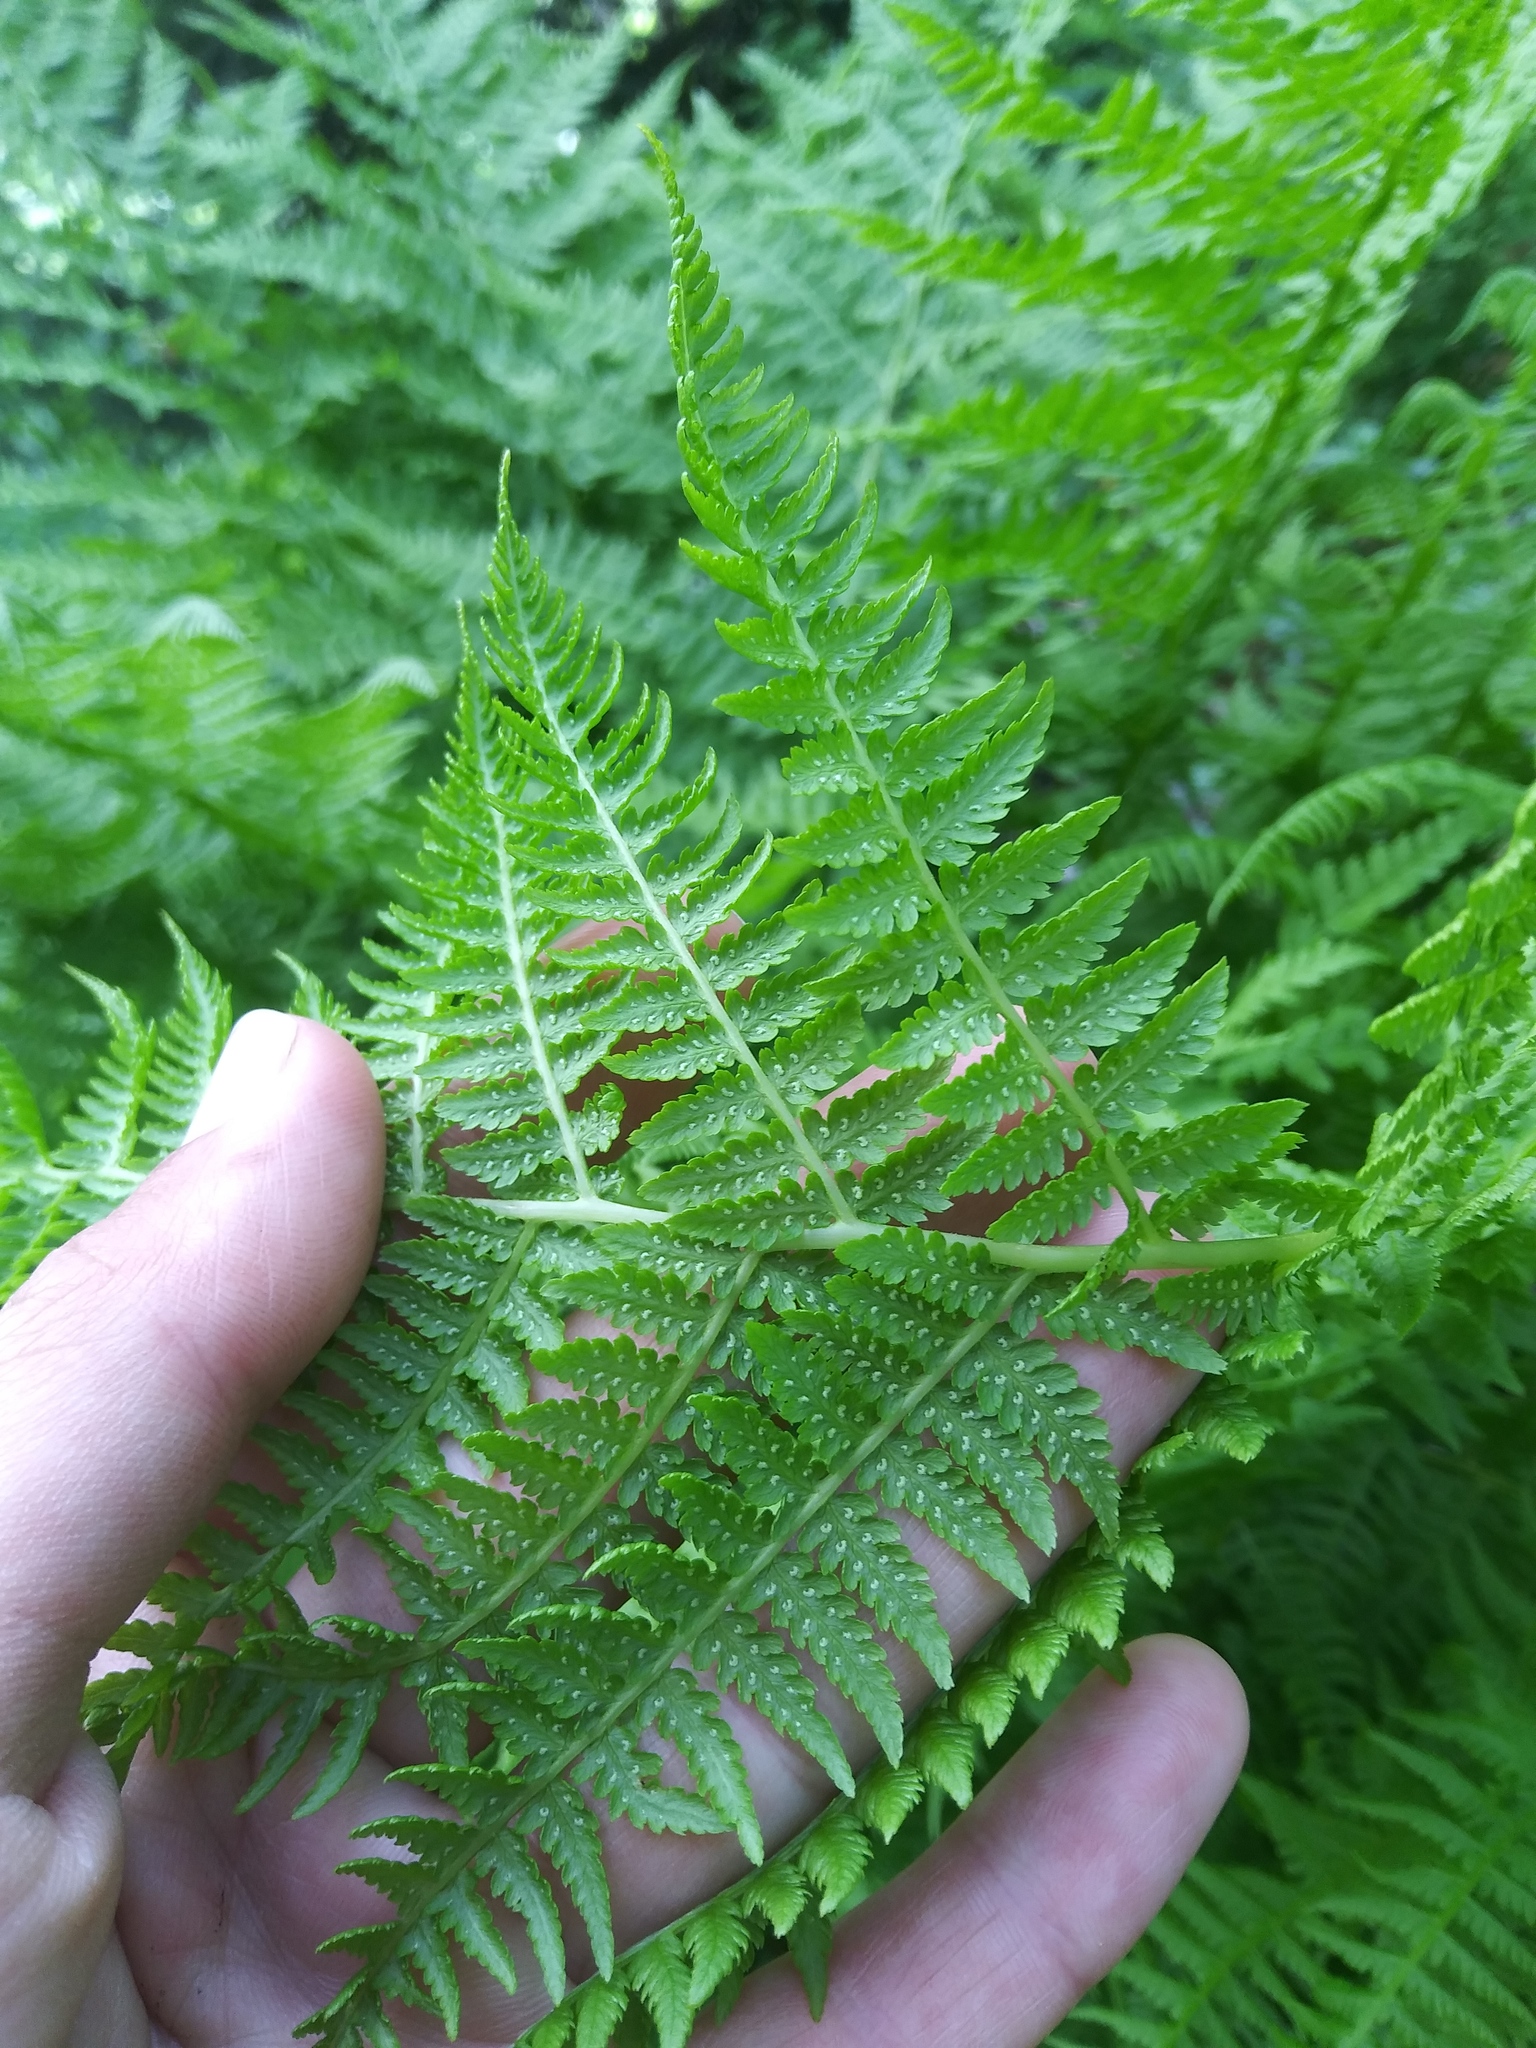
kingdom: Plantae
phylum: Tracheophyta
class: Polypodiopsida
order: Polypodiales
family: Athyriaceae
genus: Athyrium
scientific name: Athyrium filix-femina
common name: Lady fern
